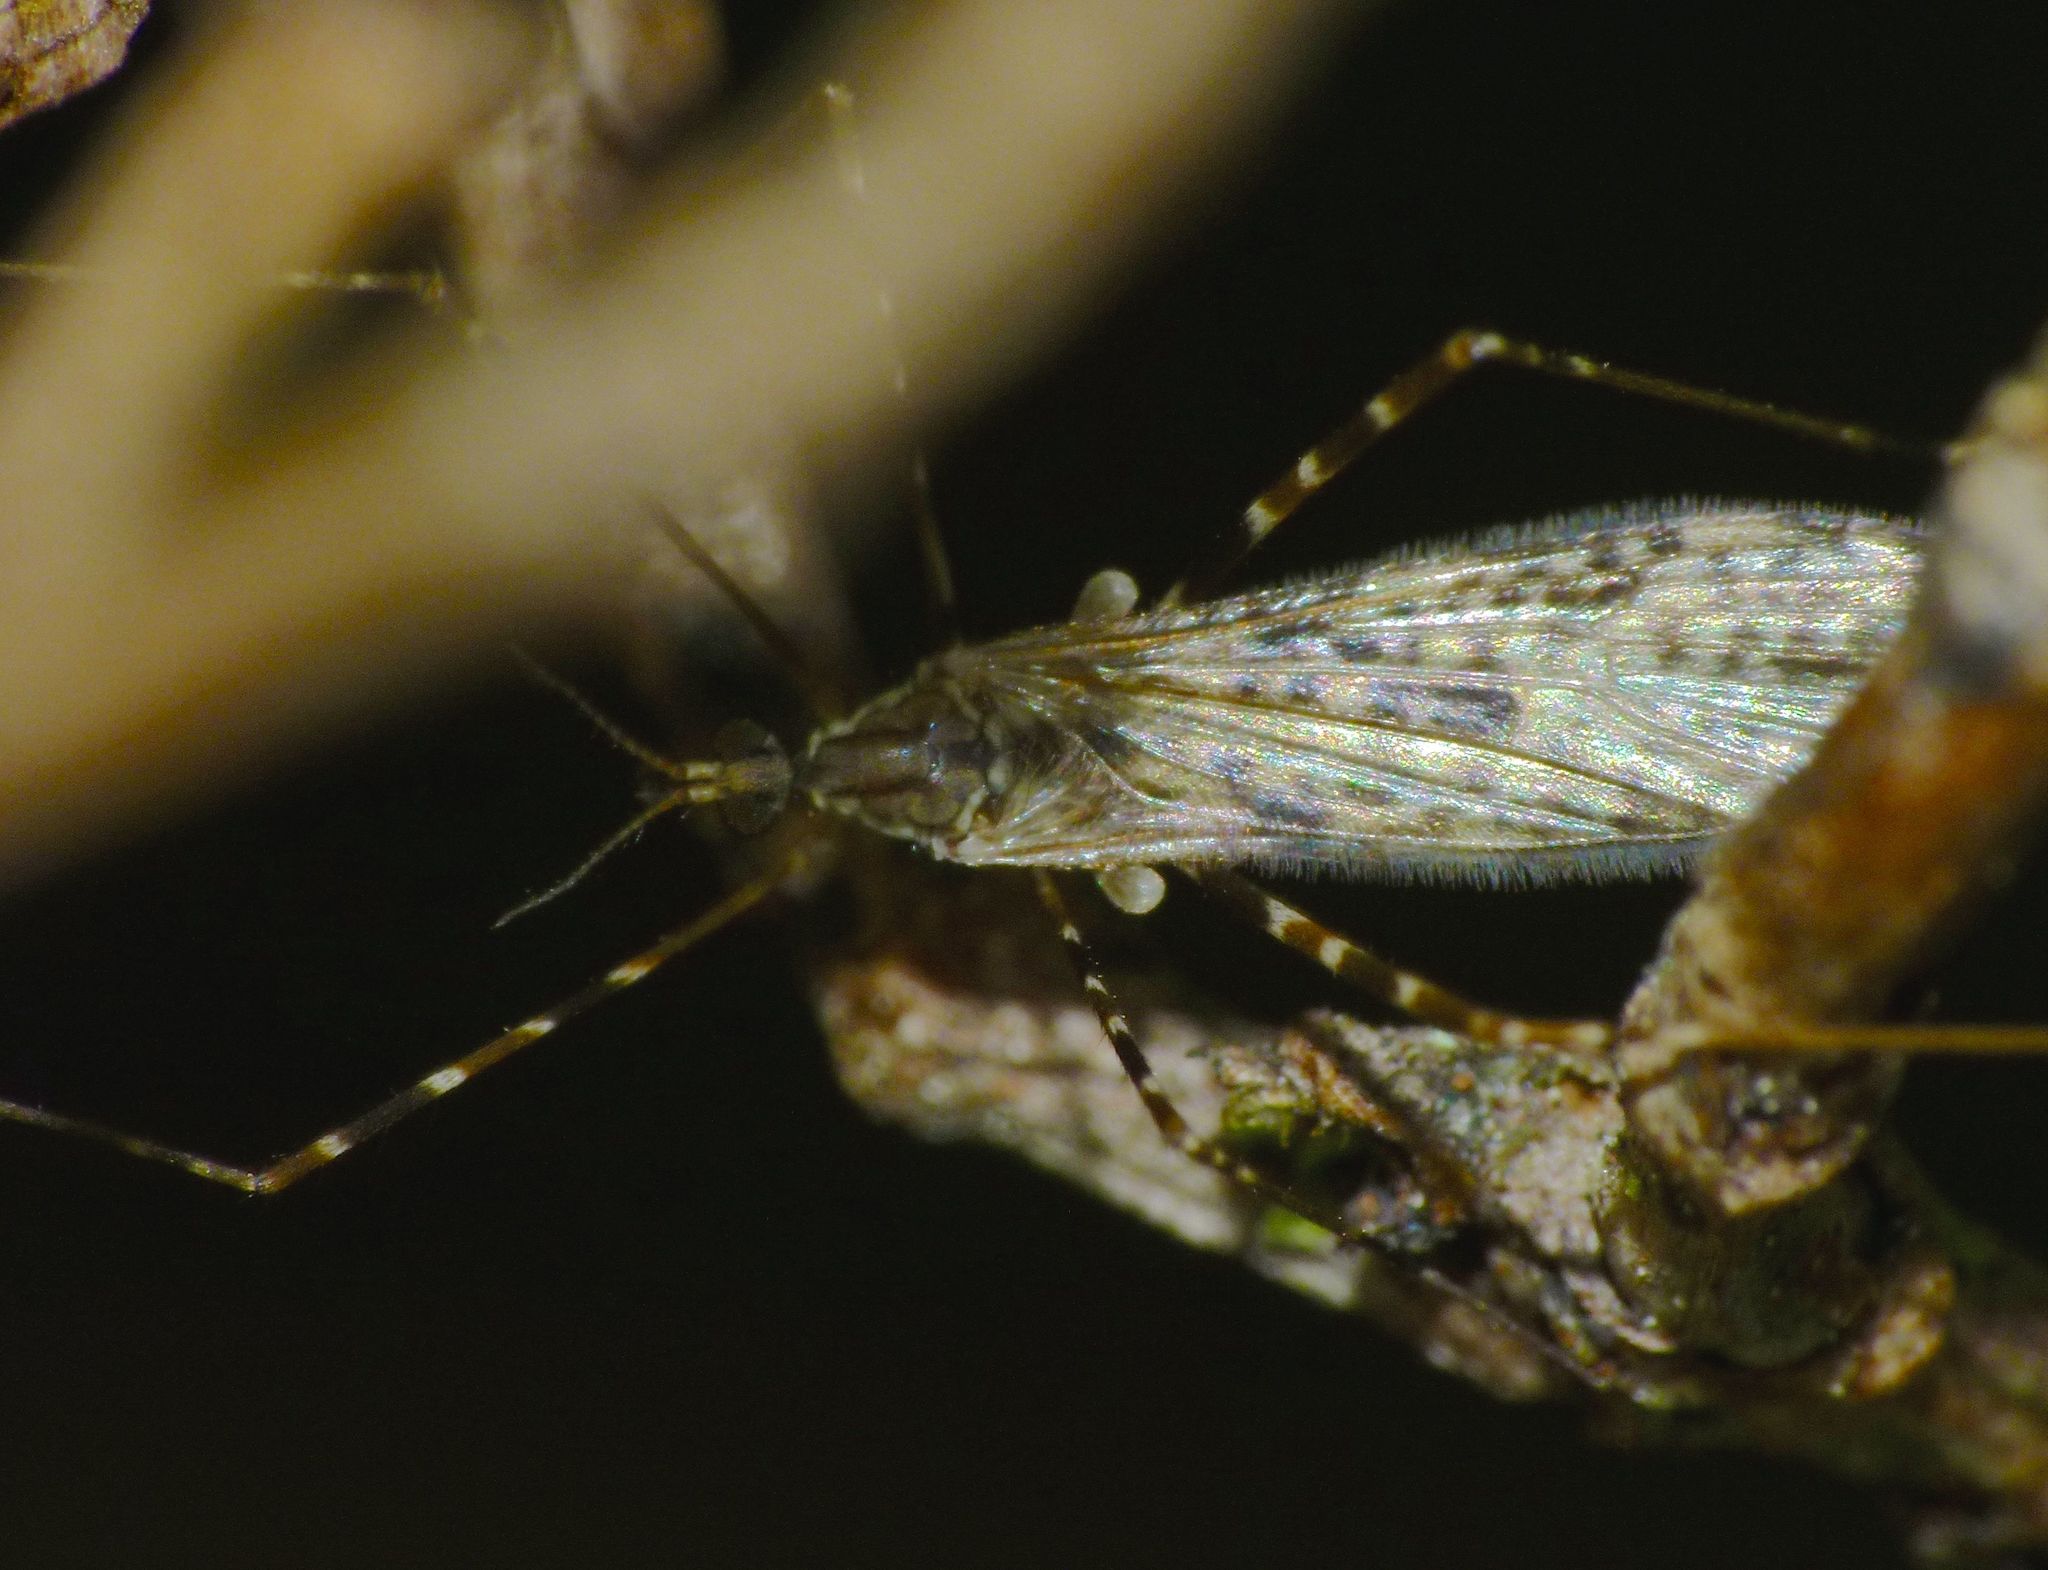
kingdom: Animalia
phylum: Arthropoda
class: Insecta
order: Diptera
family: Limoniidae
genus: Amphineurus
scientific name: Amphineurus hudsoni
